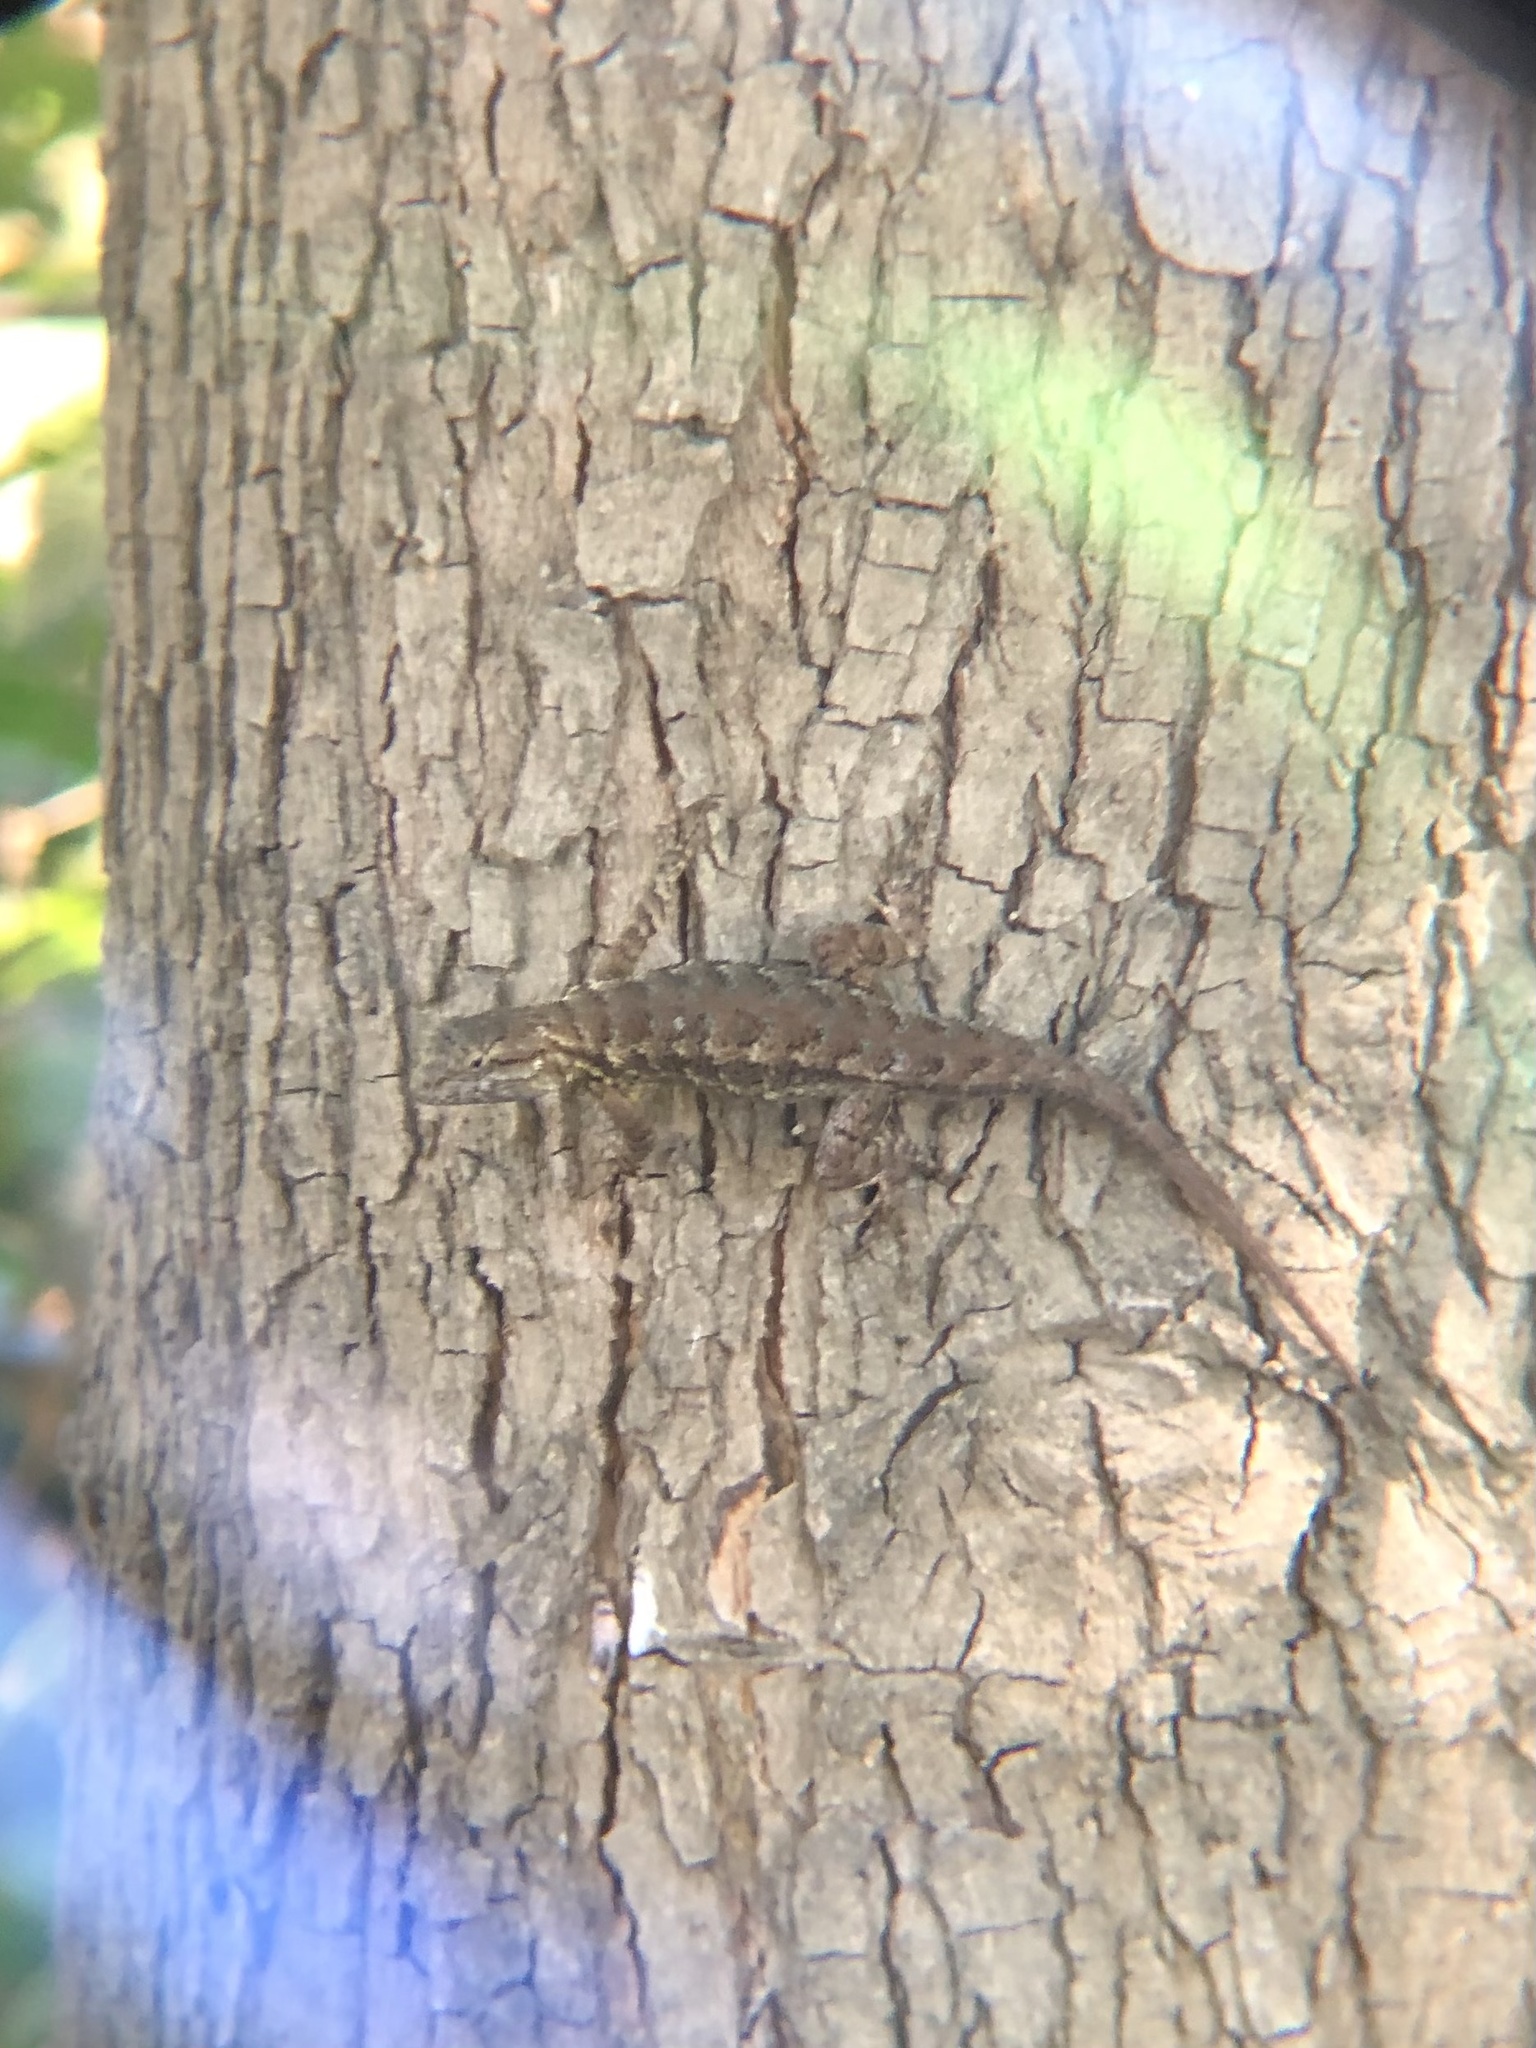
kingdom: Animalia
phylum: Chordata
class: Squamata
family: Phrynosomatidae
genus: Sceloporus
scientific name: Sceloporus occidentalis
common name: Western fence lizard
